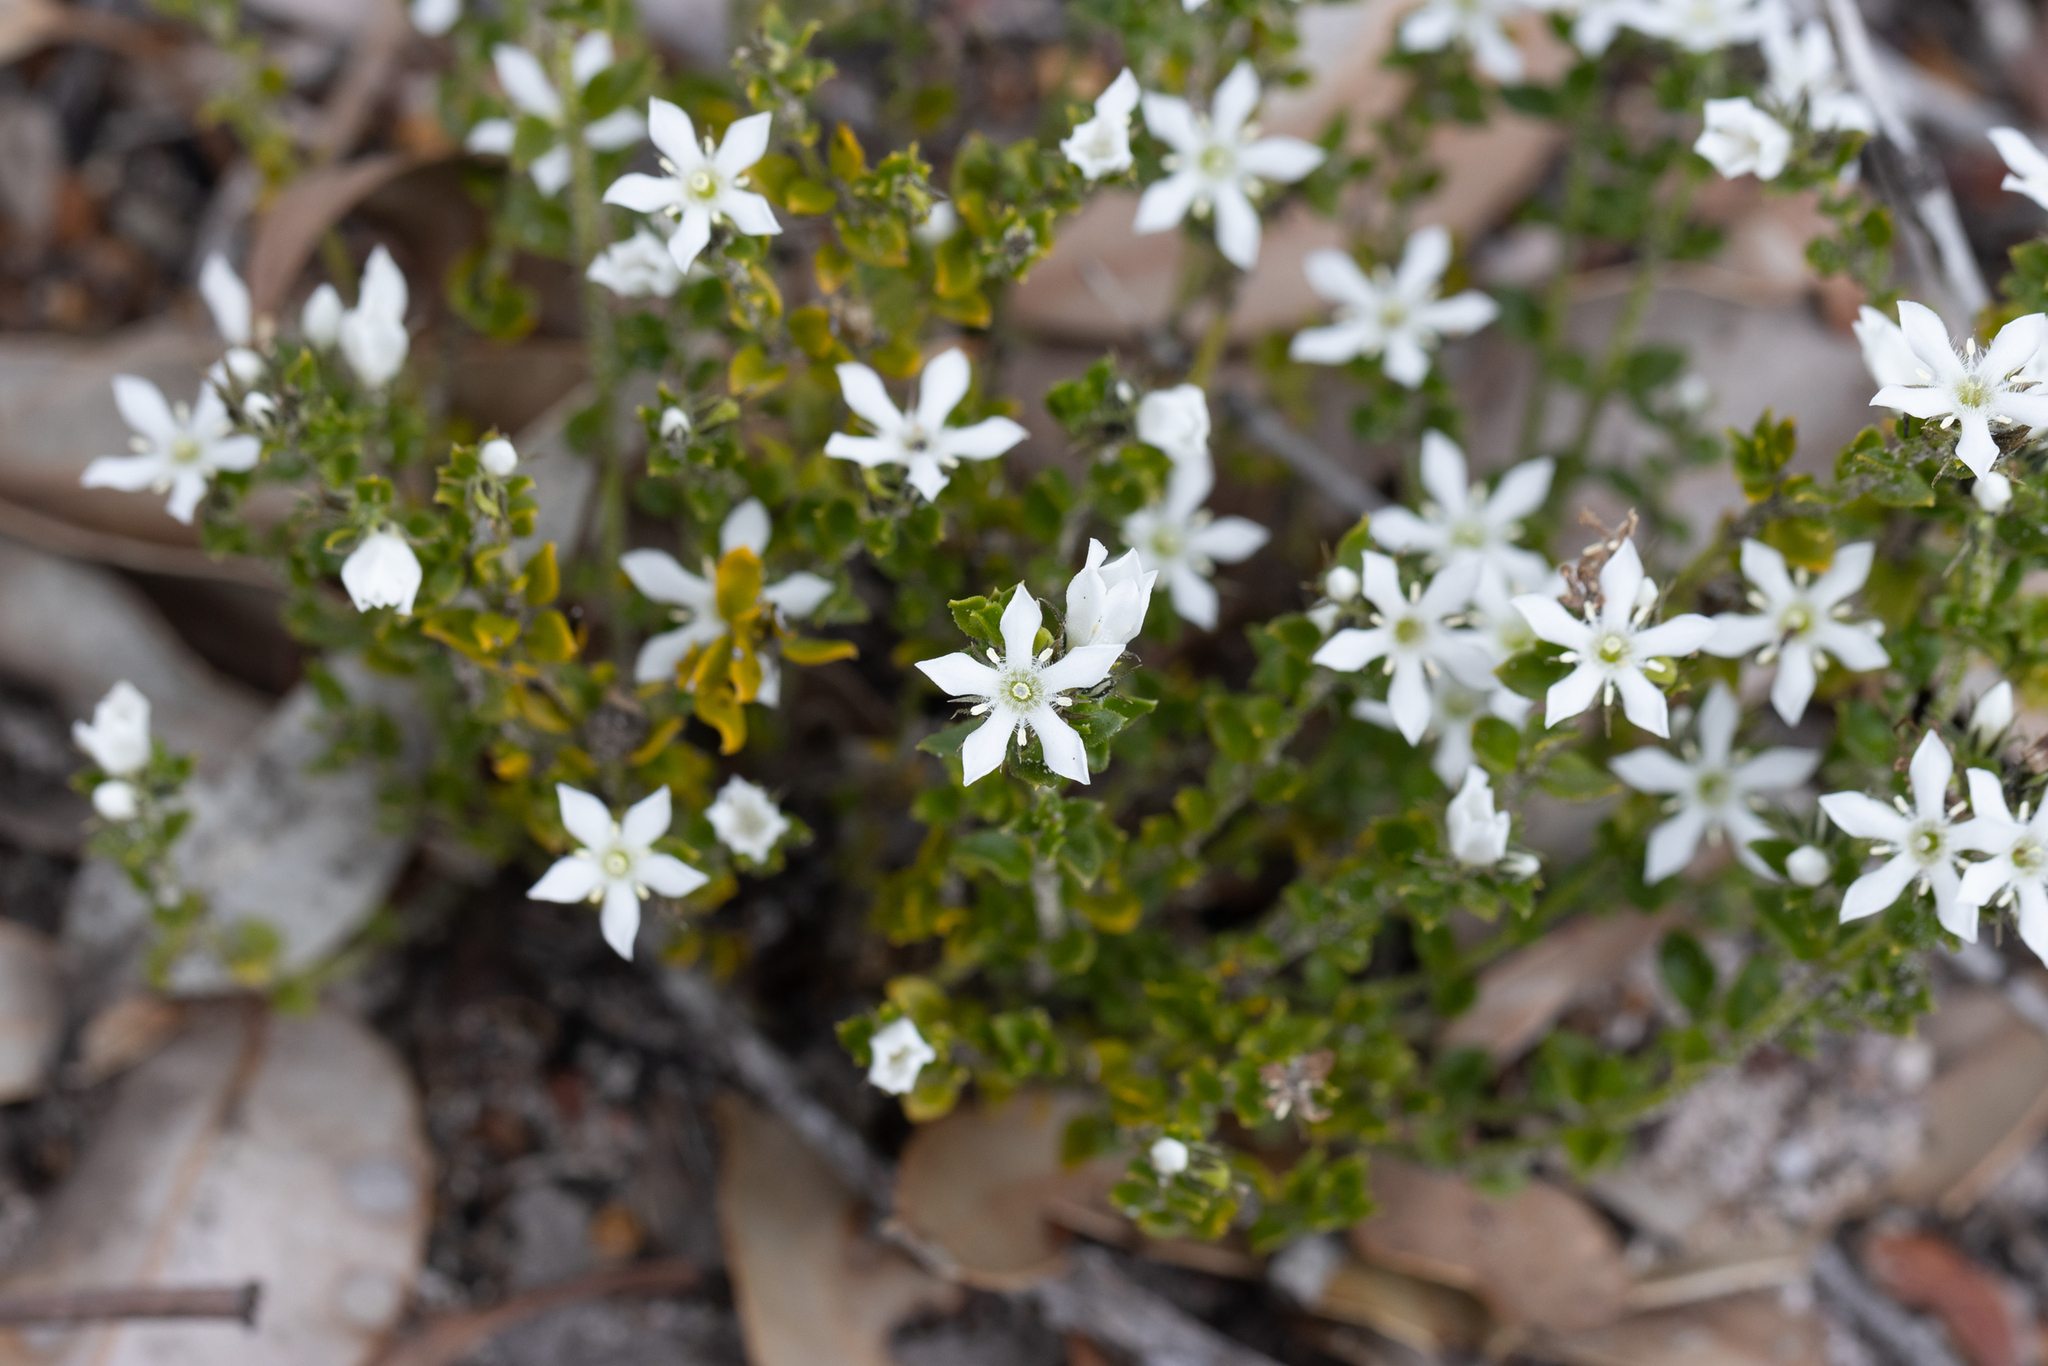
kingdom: Plantae
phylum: Tracheophyta
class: Magnoliopsida
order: Gentianales
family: Loganiaceae
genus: Orianthera
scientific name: Orianthera serpyllifolia
